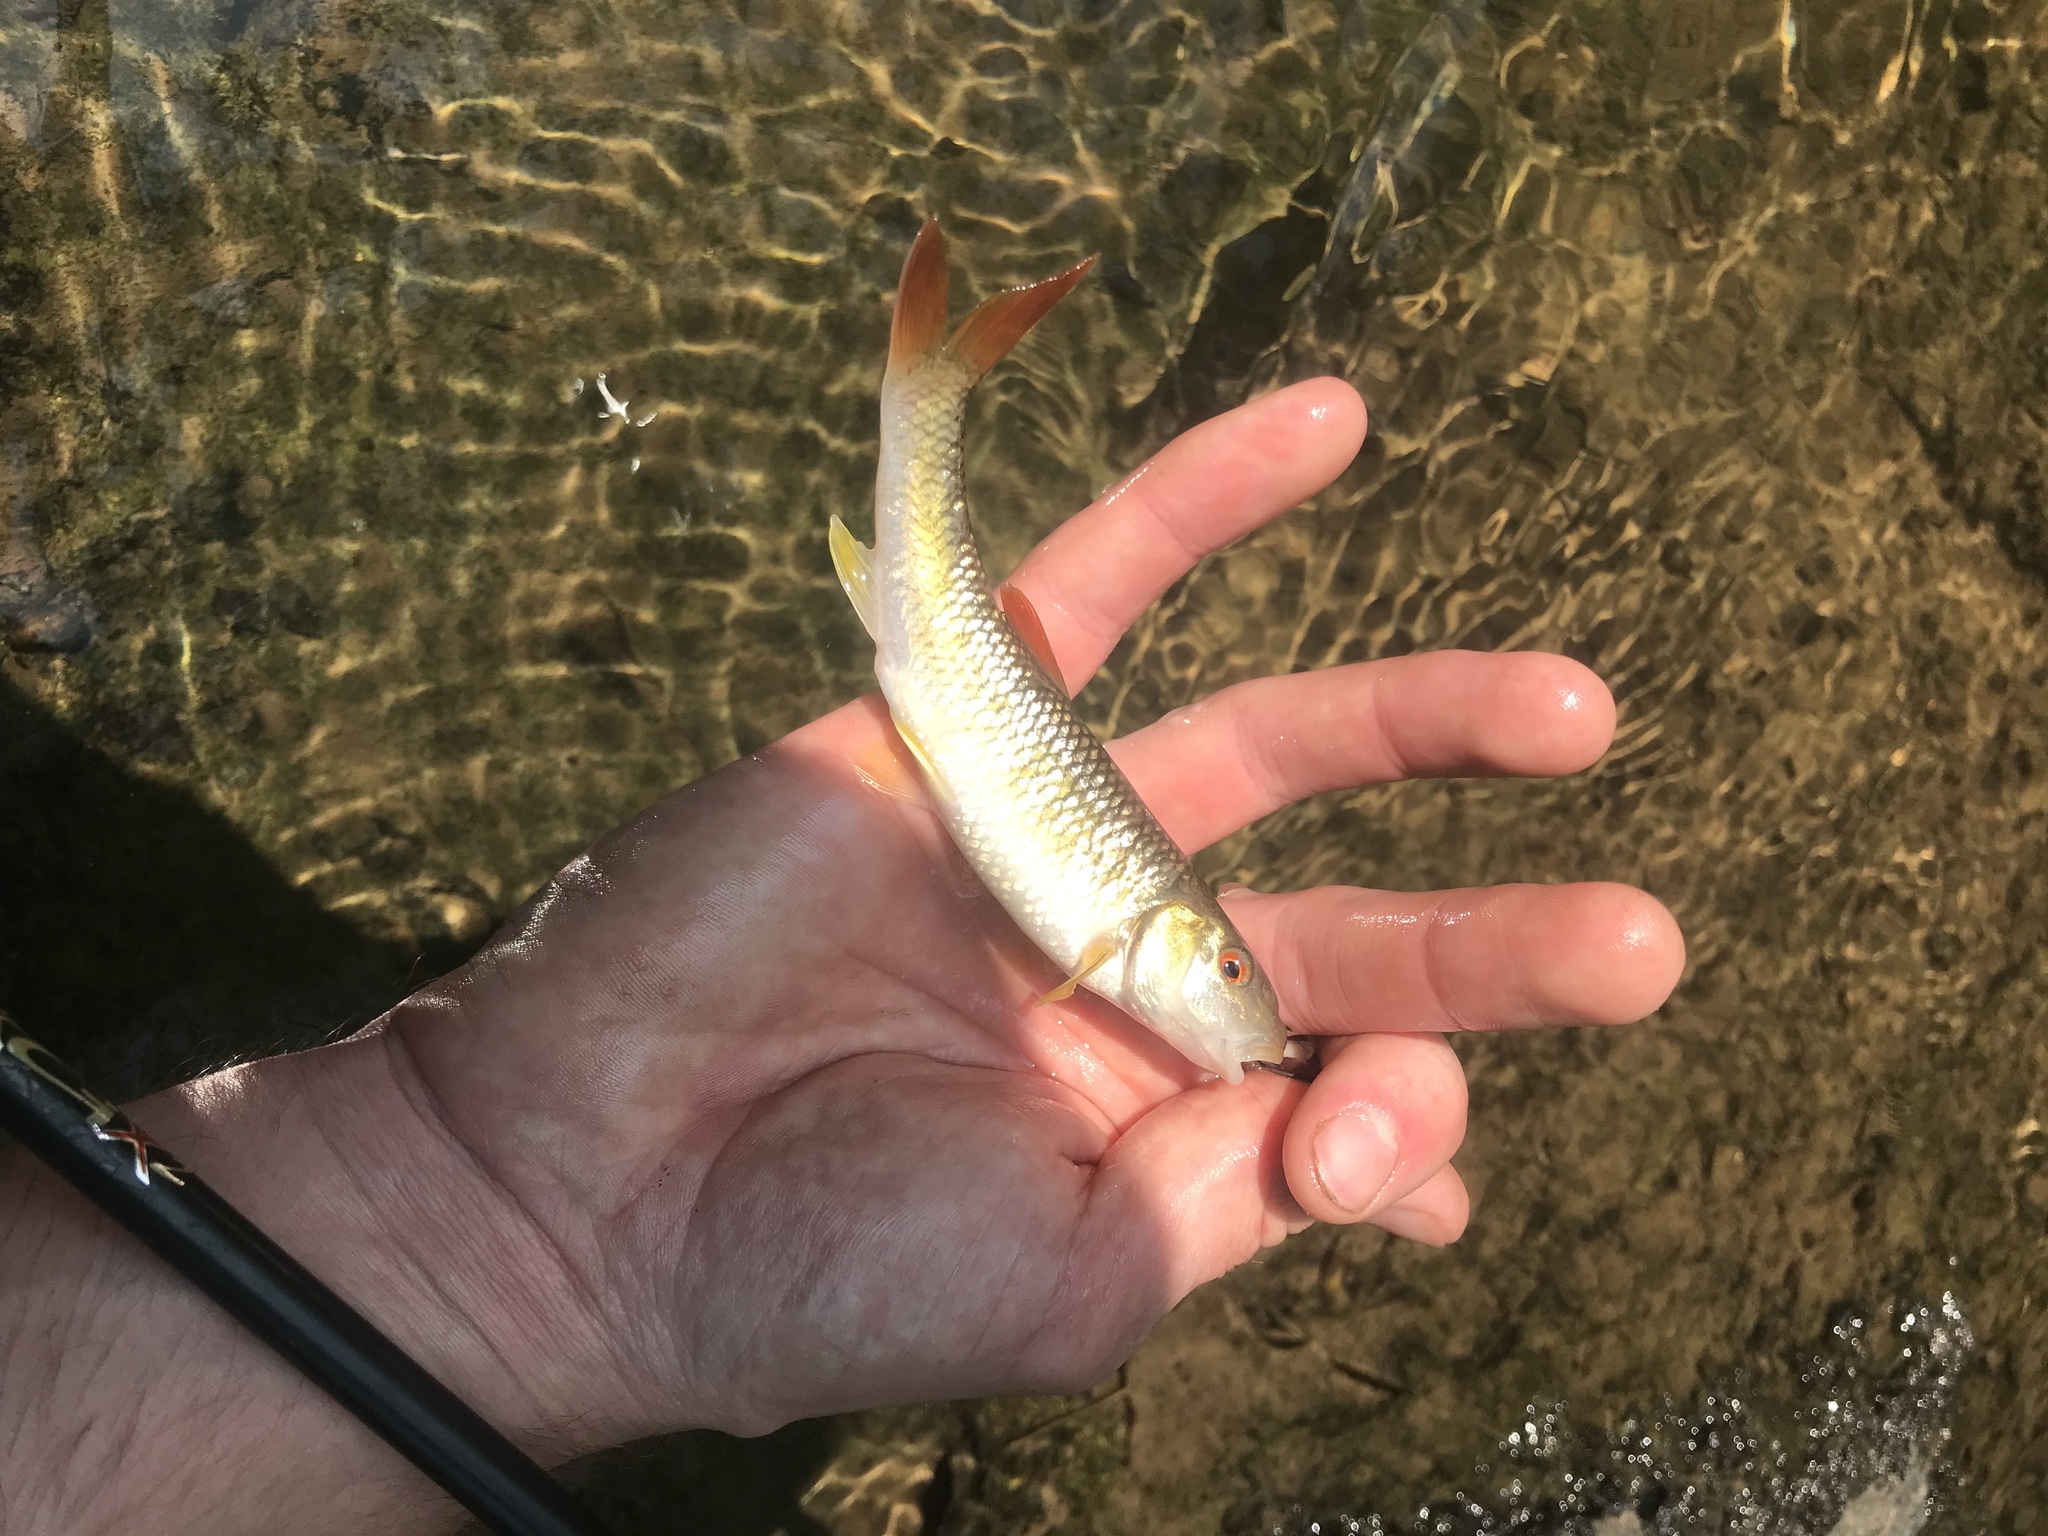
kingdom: Animalia
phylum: Chordata
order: Cypriniformes
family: Cyprinidae
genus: Nocomis
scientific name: Nocomis leptocephalus
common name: Bluehead chub
